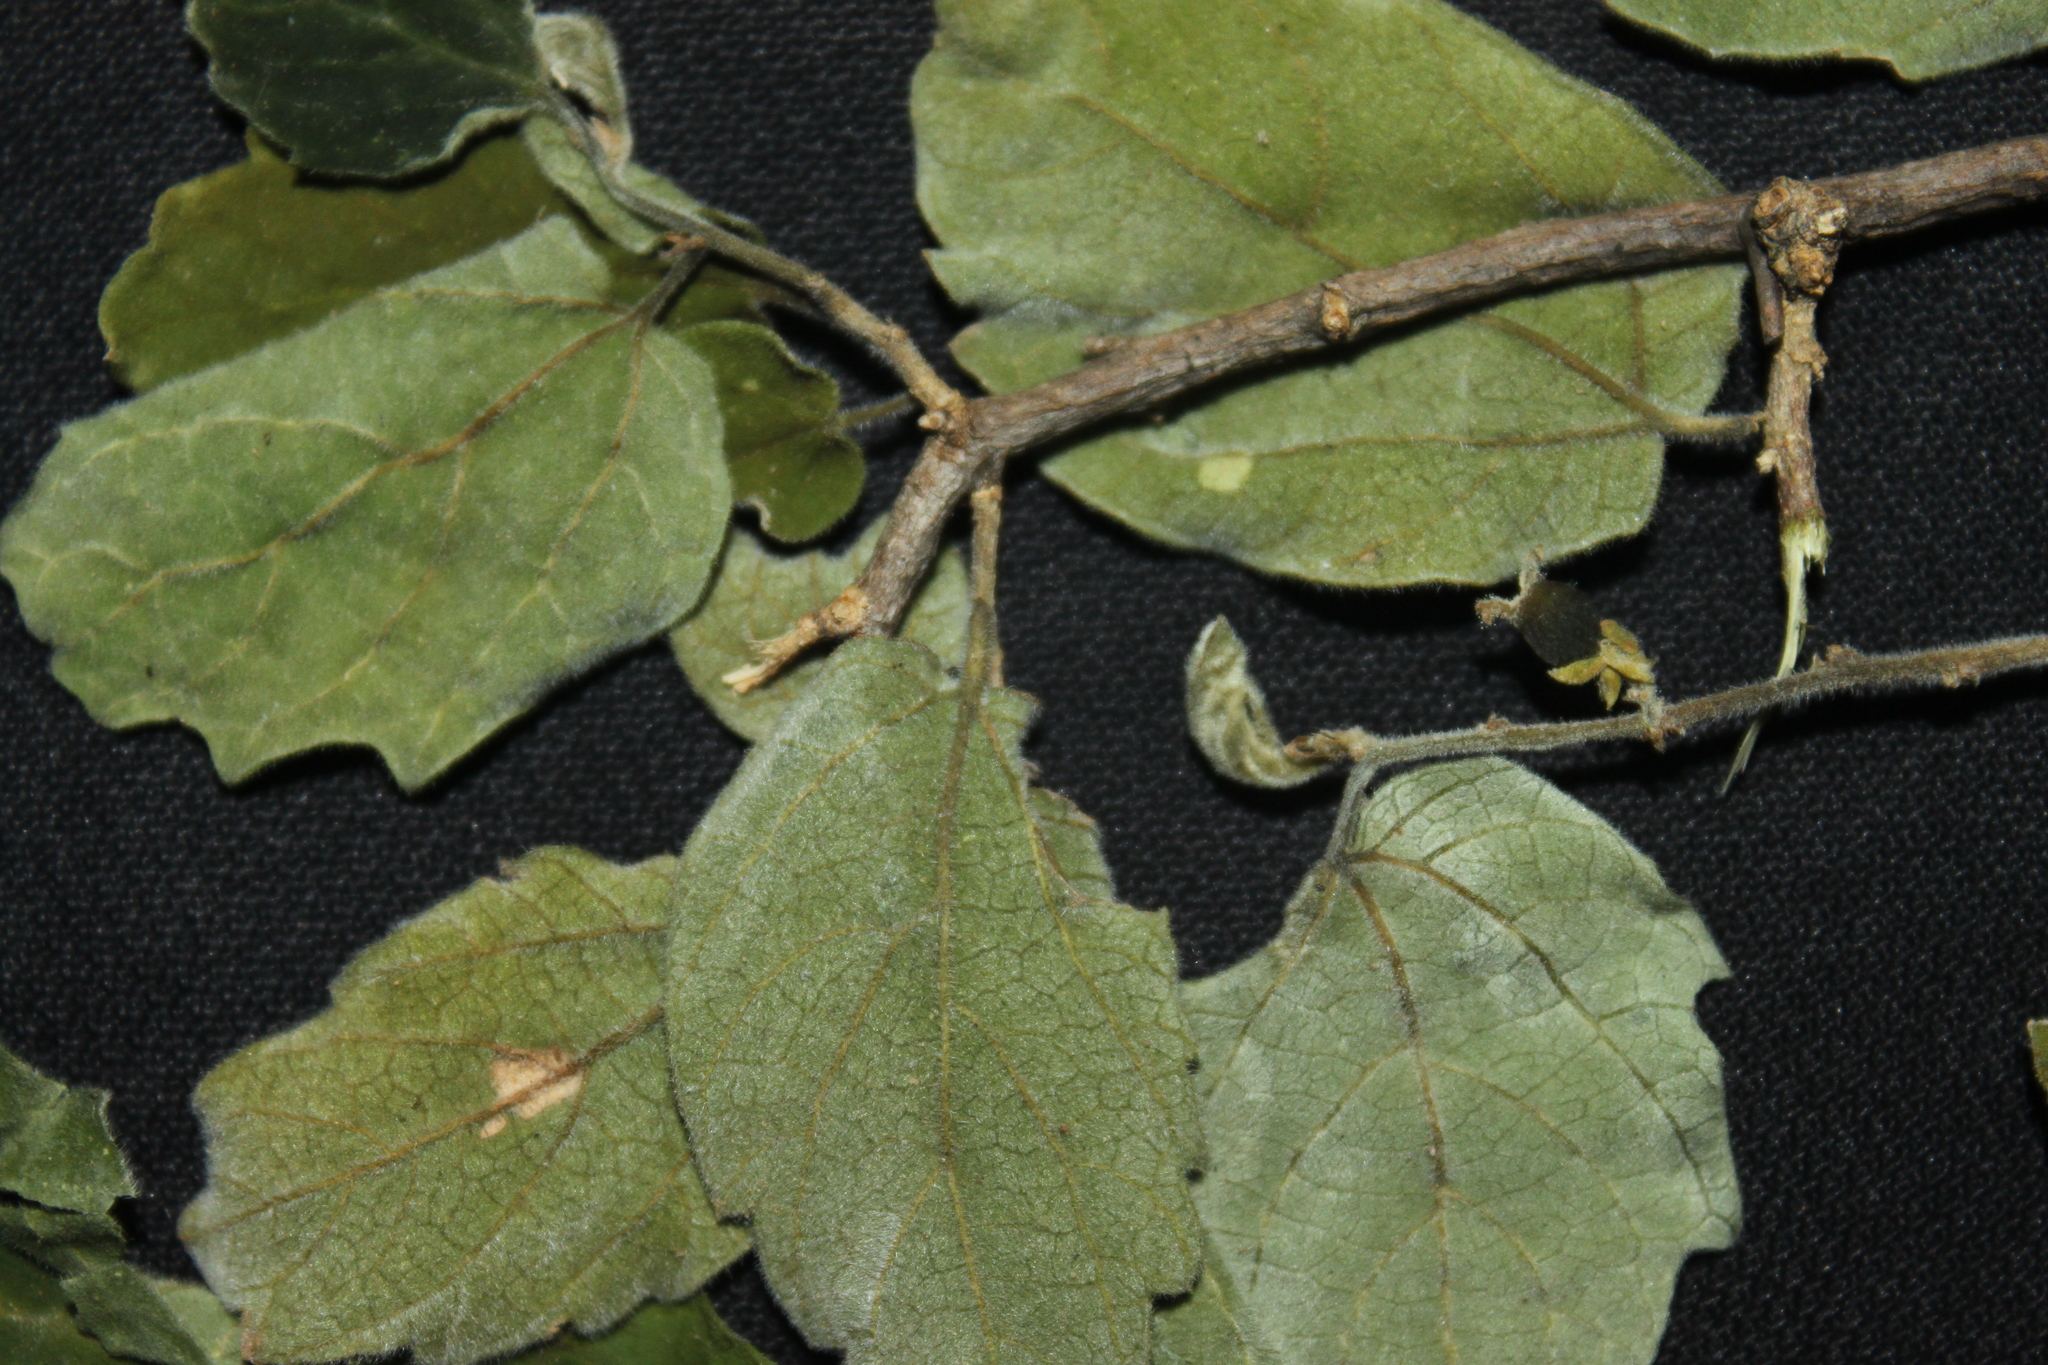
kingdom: Plantae
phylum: Tracheophyta
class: Magnoliopsida
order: Rosales
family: Cannabaceae
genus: Celtis
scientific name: Celtis chicape
